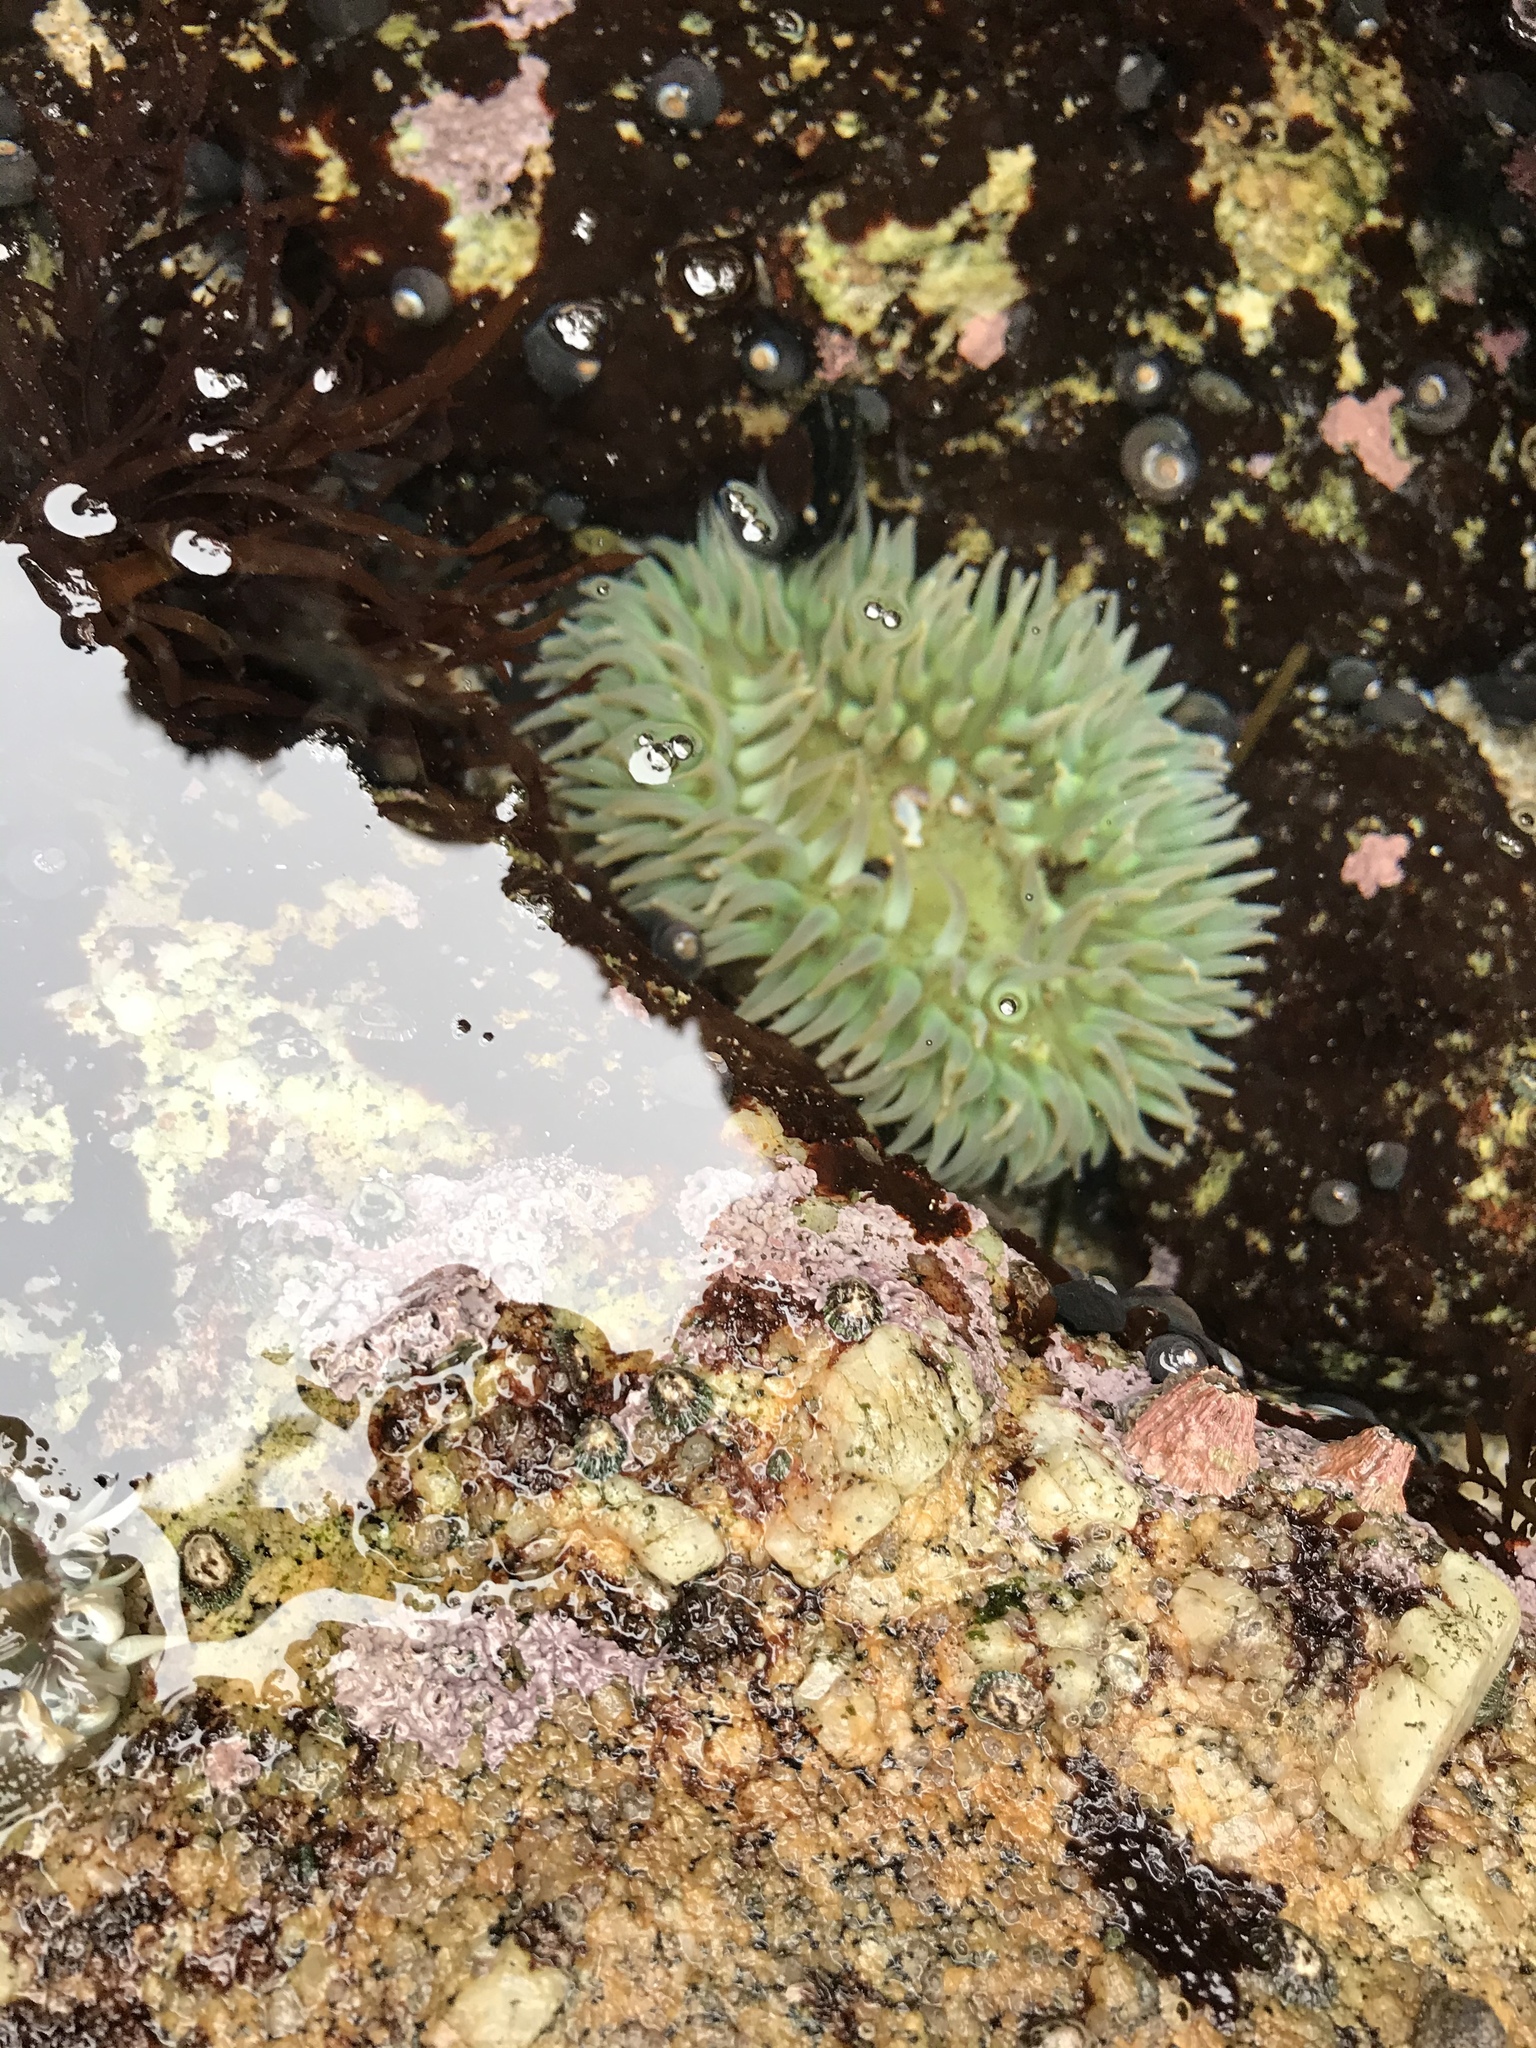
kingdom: Animalia
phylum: Cnidaria
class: Anthozoa
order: Actiniaria
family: Actiniidae
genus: Anthopleura
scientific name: Anthopleura xanthogrammica
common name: Giant green anemone
